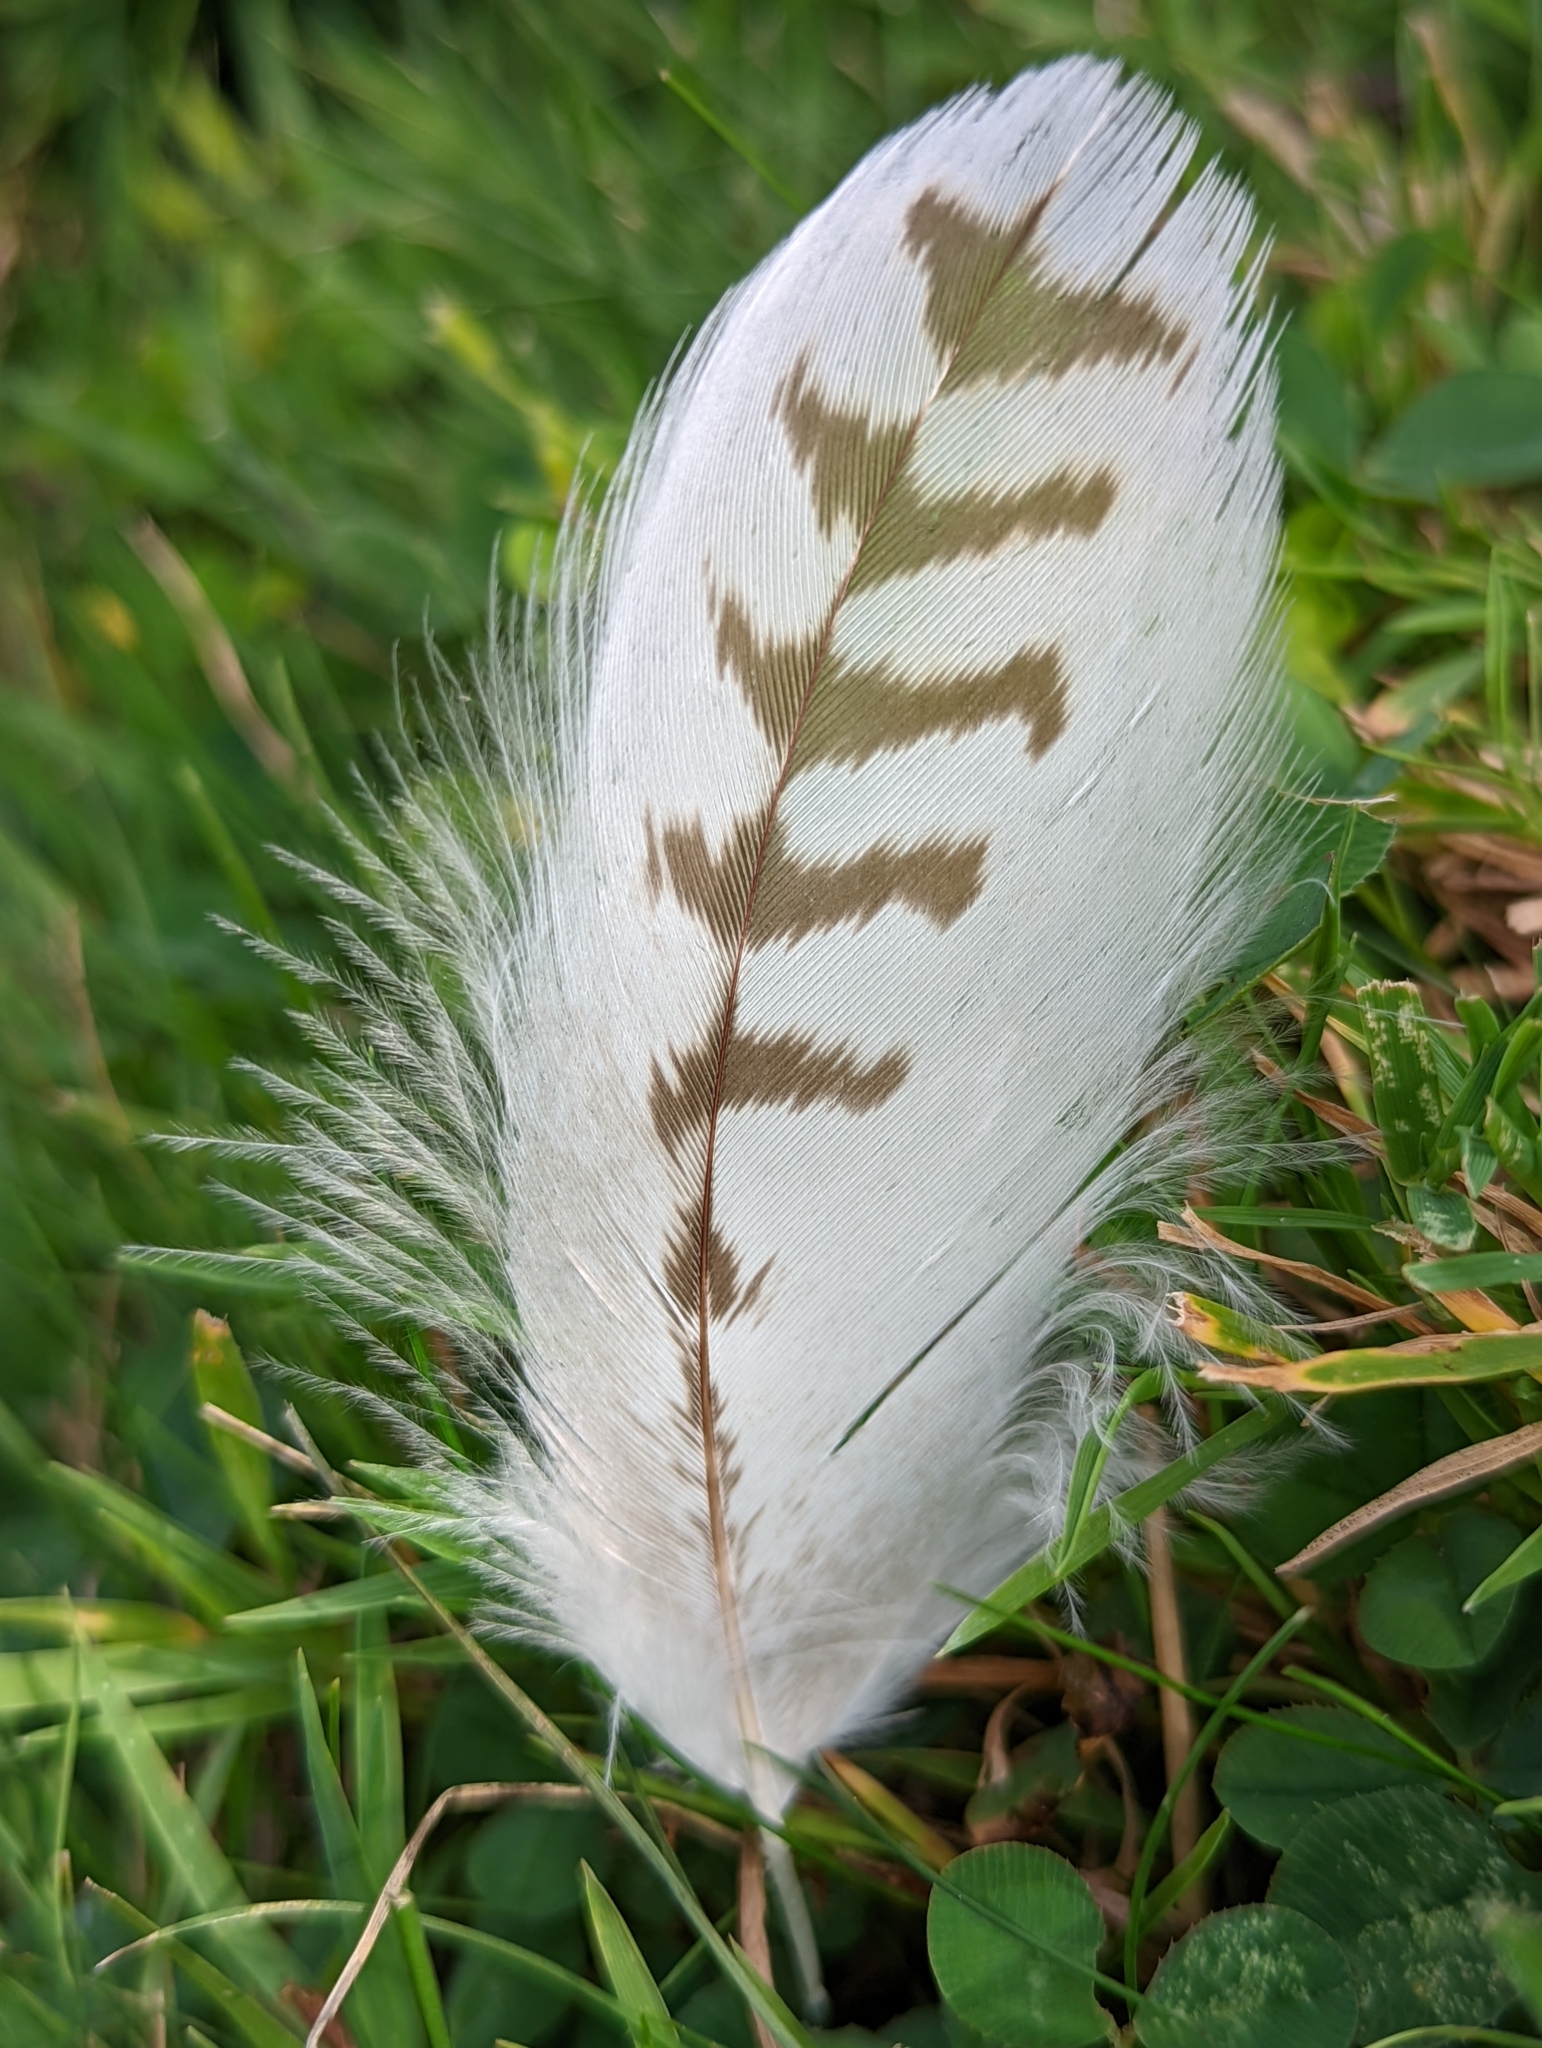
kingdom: Animalia
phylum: Chordata
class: Aves
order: Accipitriformes
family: Accipitridae
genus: Buteo
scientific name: Buteo jamaicensis
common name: Red-tailed hawk
